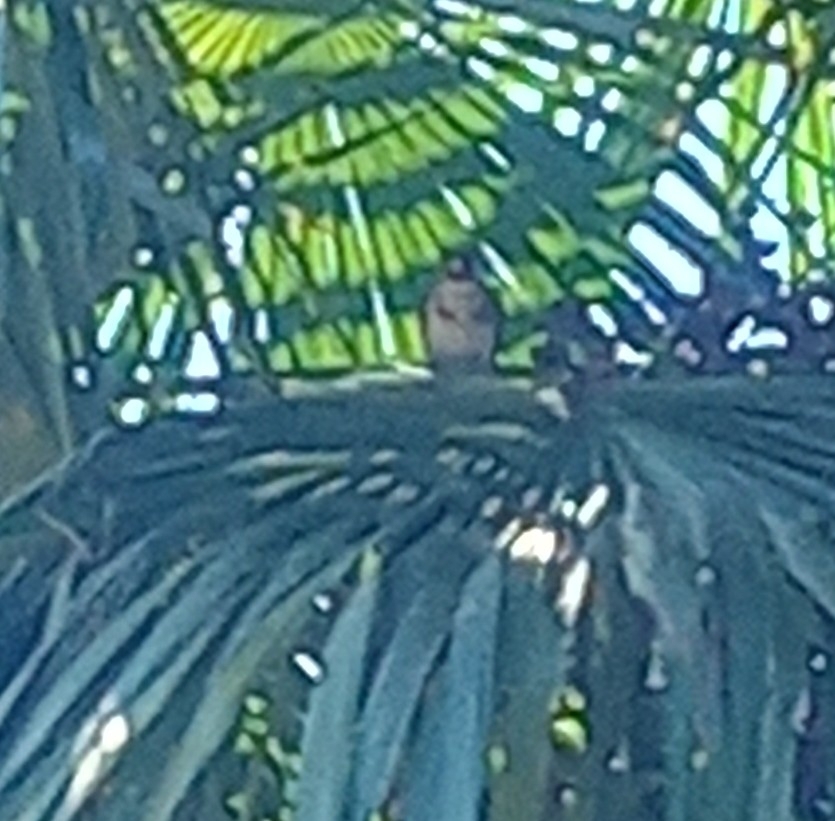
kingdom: Animalia
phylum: Chordata
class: Aves
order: Passeriformes
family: Fringillidae
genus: Carduelis
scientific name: Carduelis carduelis
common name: European goldfinch
